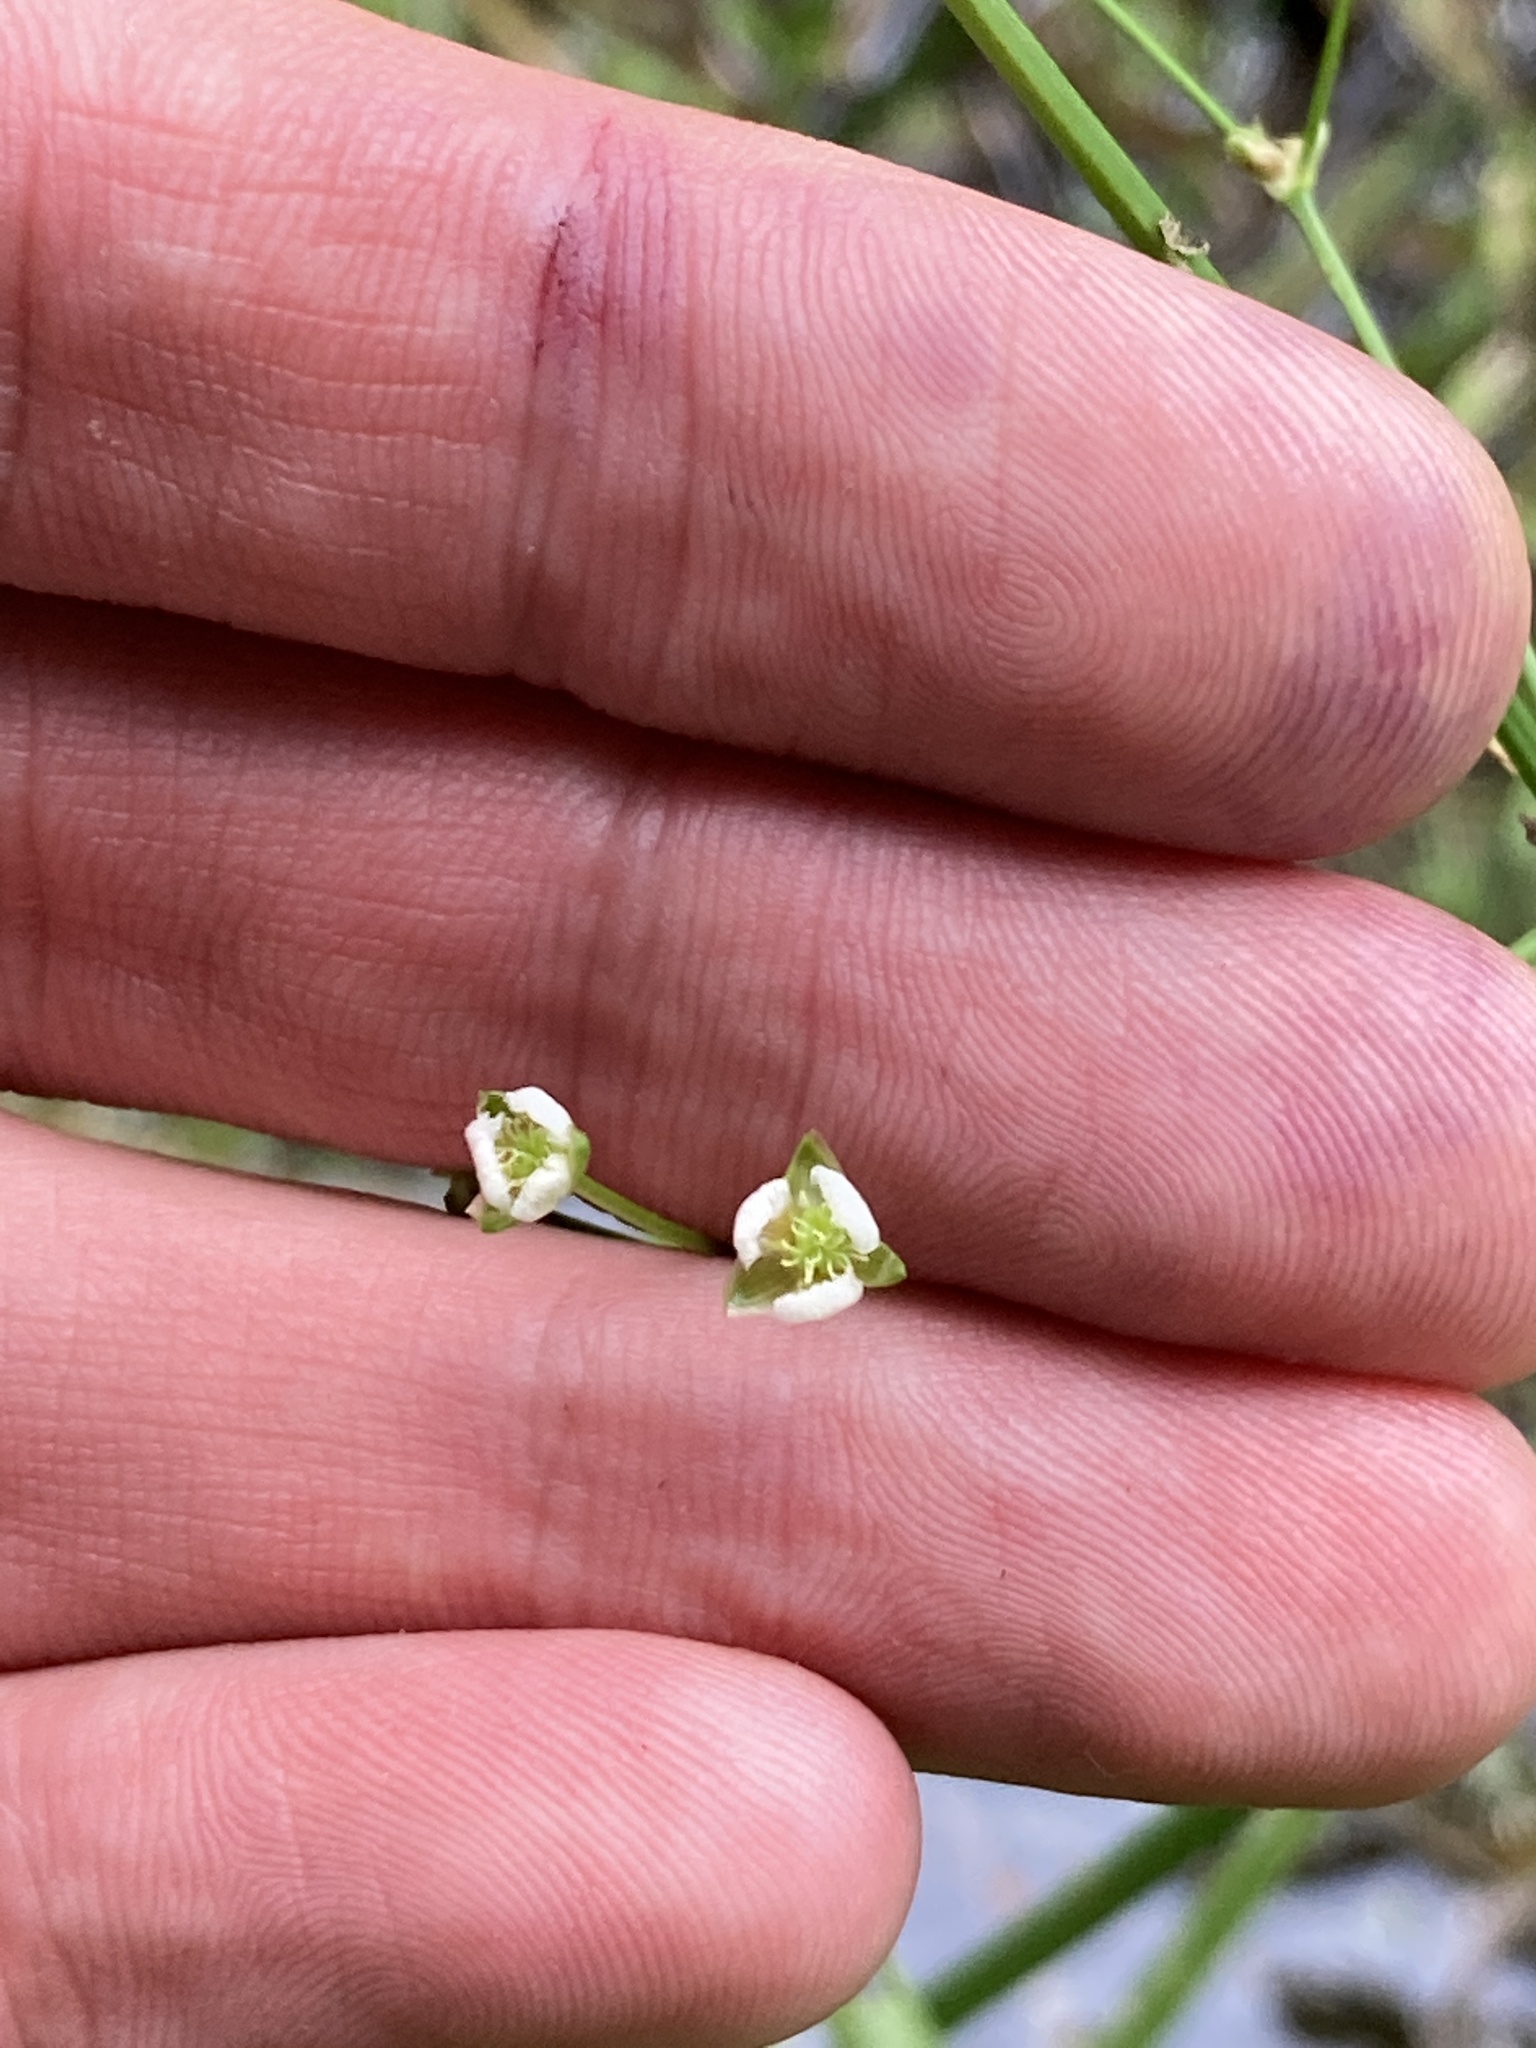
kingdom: Plantae
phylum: Tracheophyta
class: Liliopsida
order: Alismatales
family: Alismataceae
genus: Alisma
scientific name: Alisma plantago-aquatica
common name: Water-plantain
